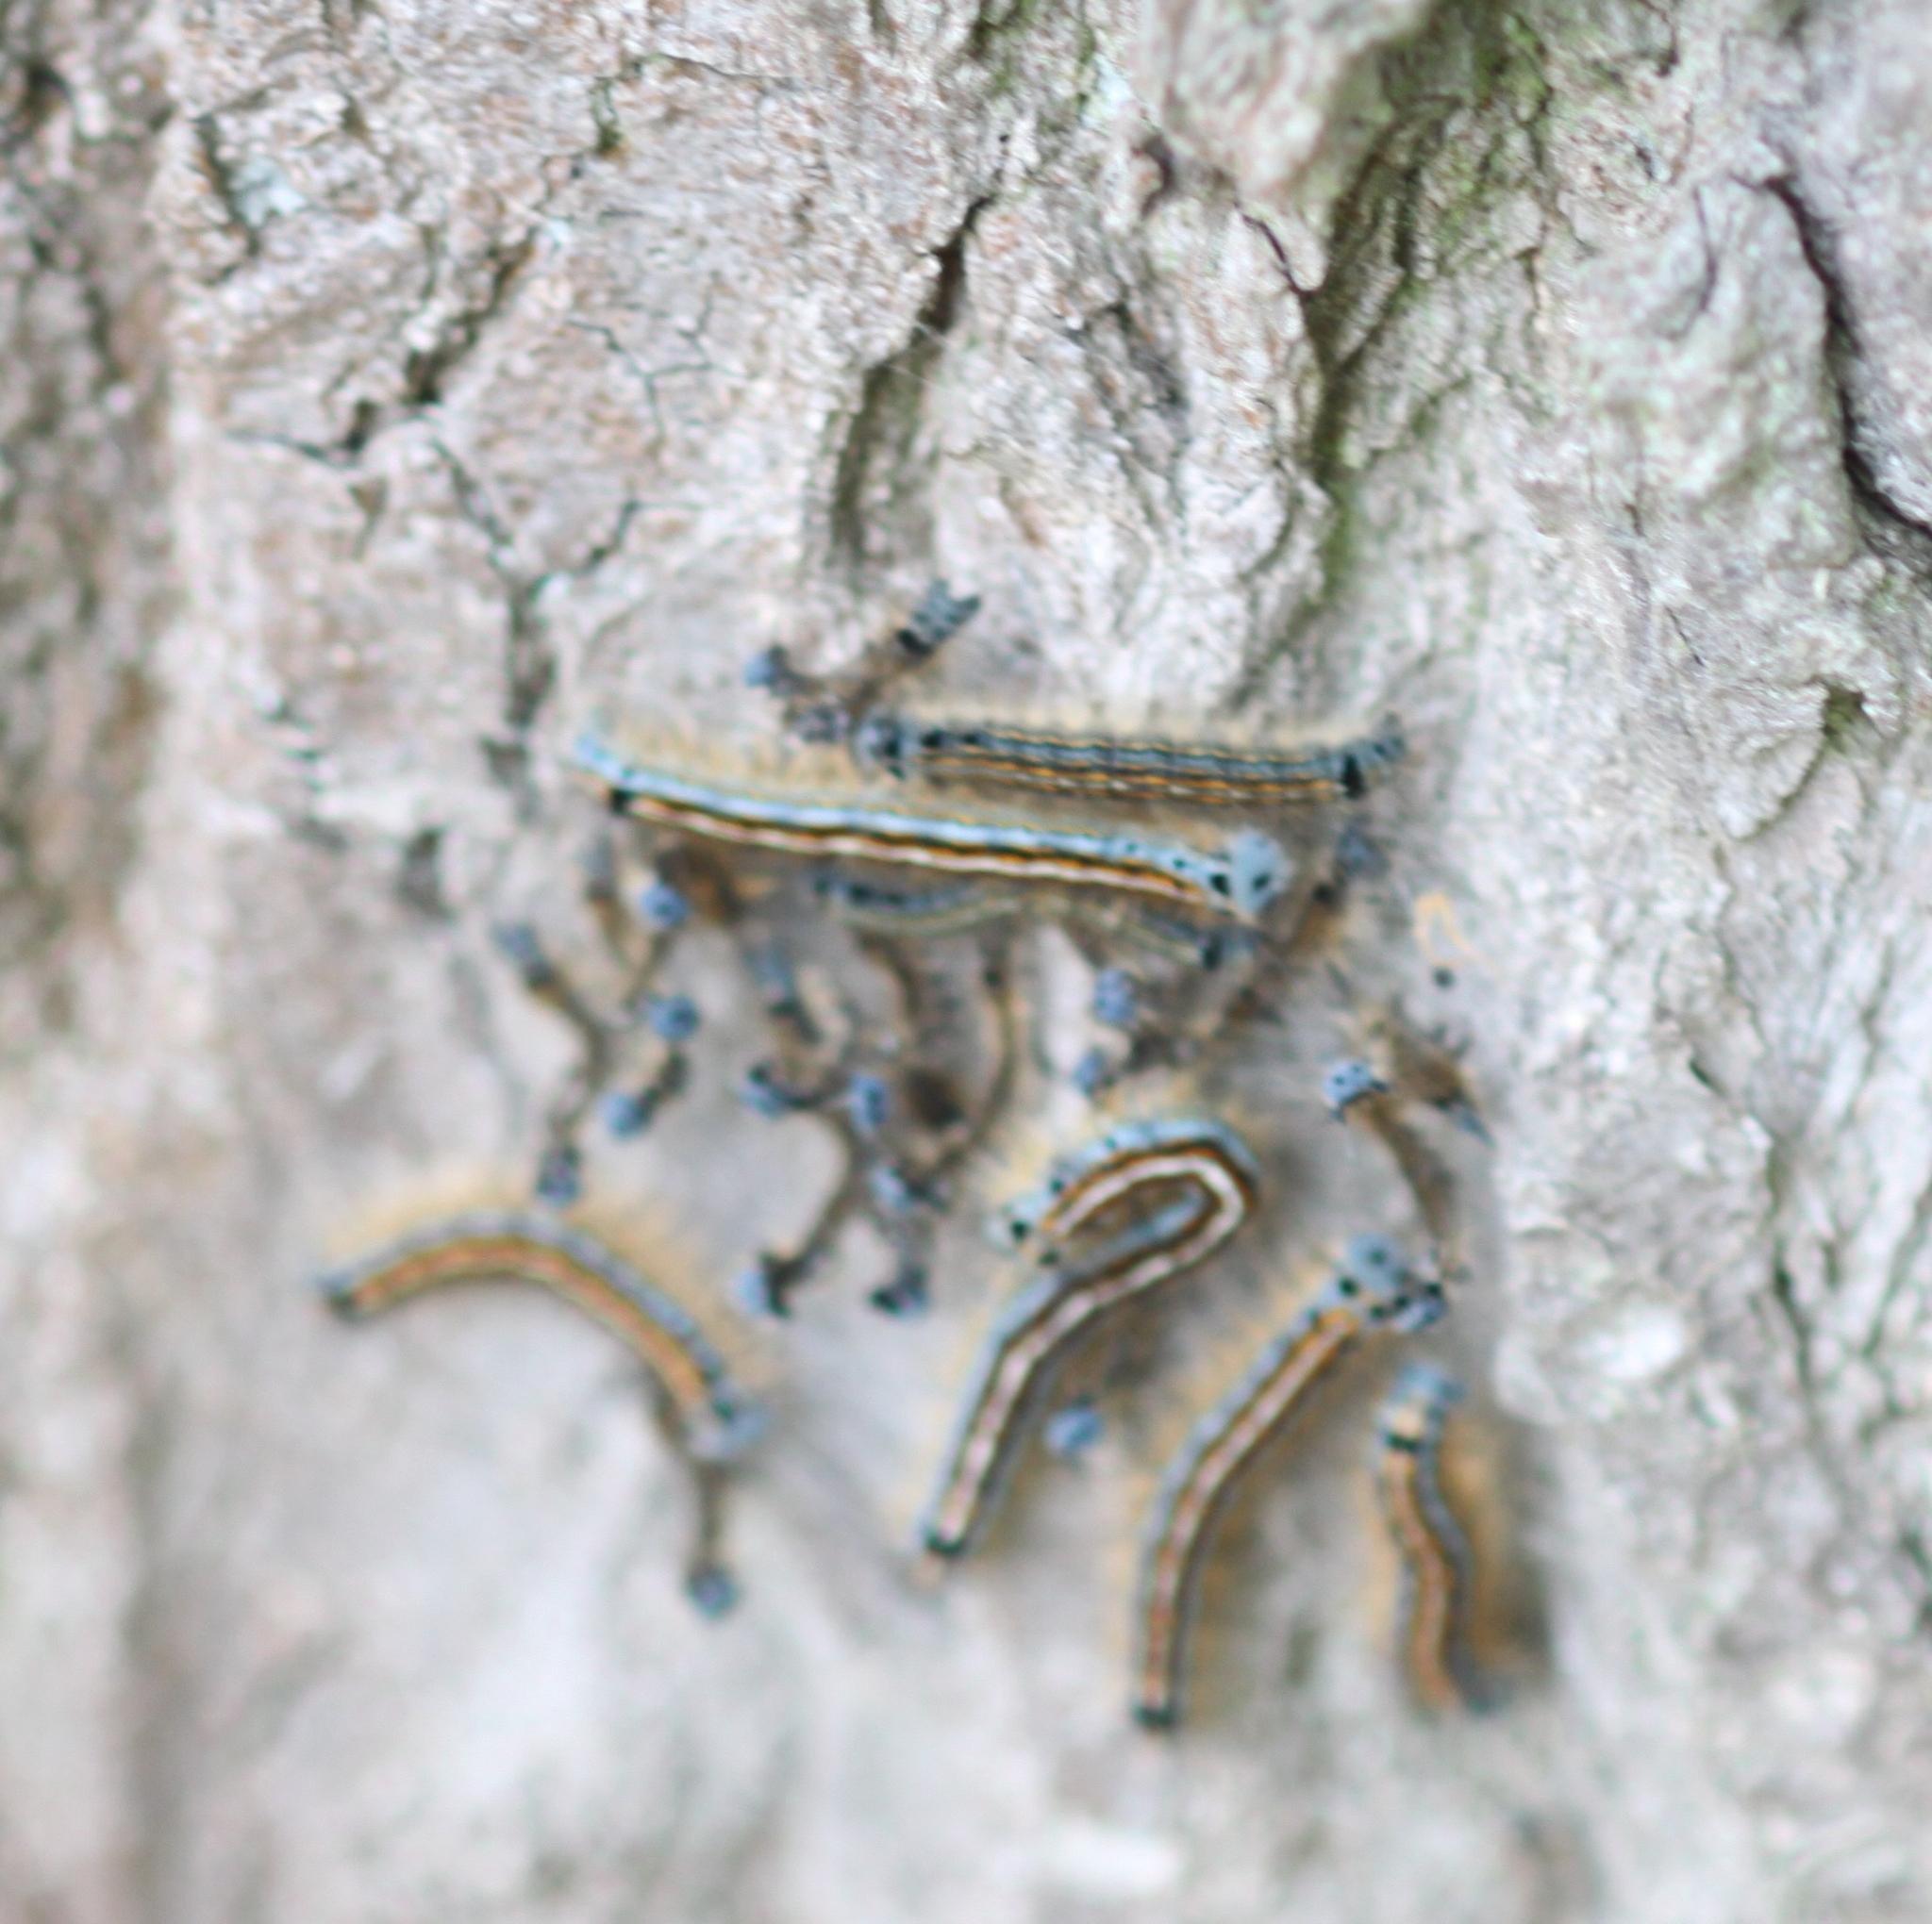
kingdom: Animalia
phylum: Arthropoda
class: Insecta
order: Lepidoptera
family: Lasiocampidae
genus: Malacosoma
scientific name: Malacosoma neustria
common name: The lackey
